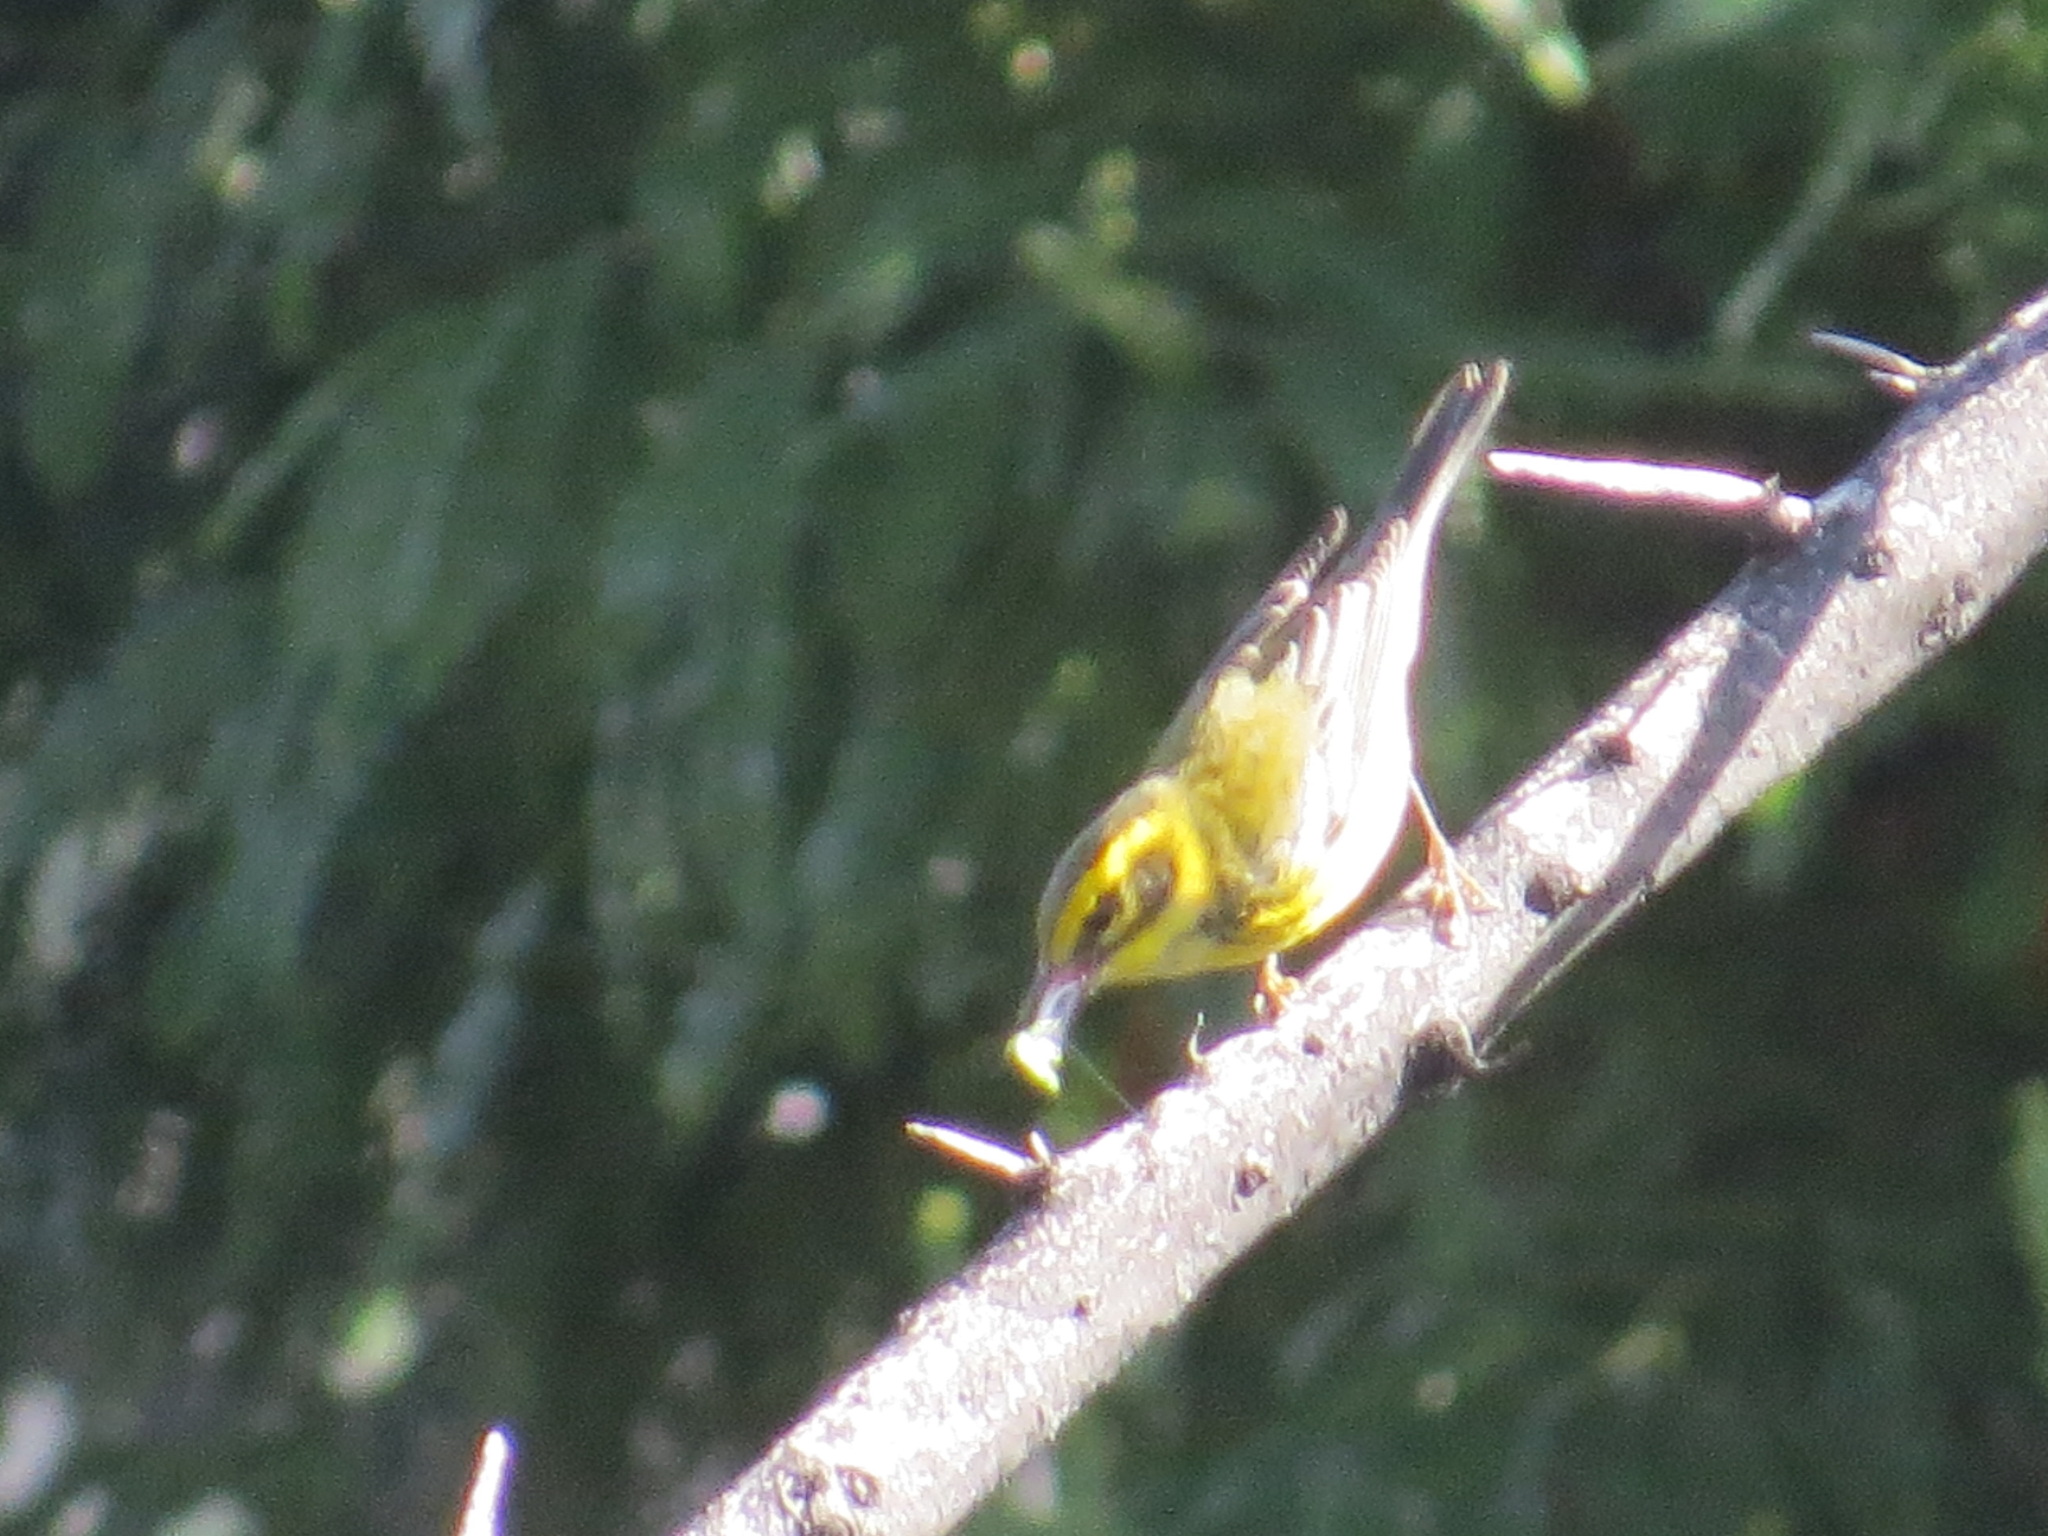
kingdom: Animalia
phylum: Chordata
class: Aves
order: Passeriformes
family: Parulidae
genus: Setophaga
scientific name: Setophaga townsendi
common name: Townsend's warbler
